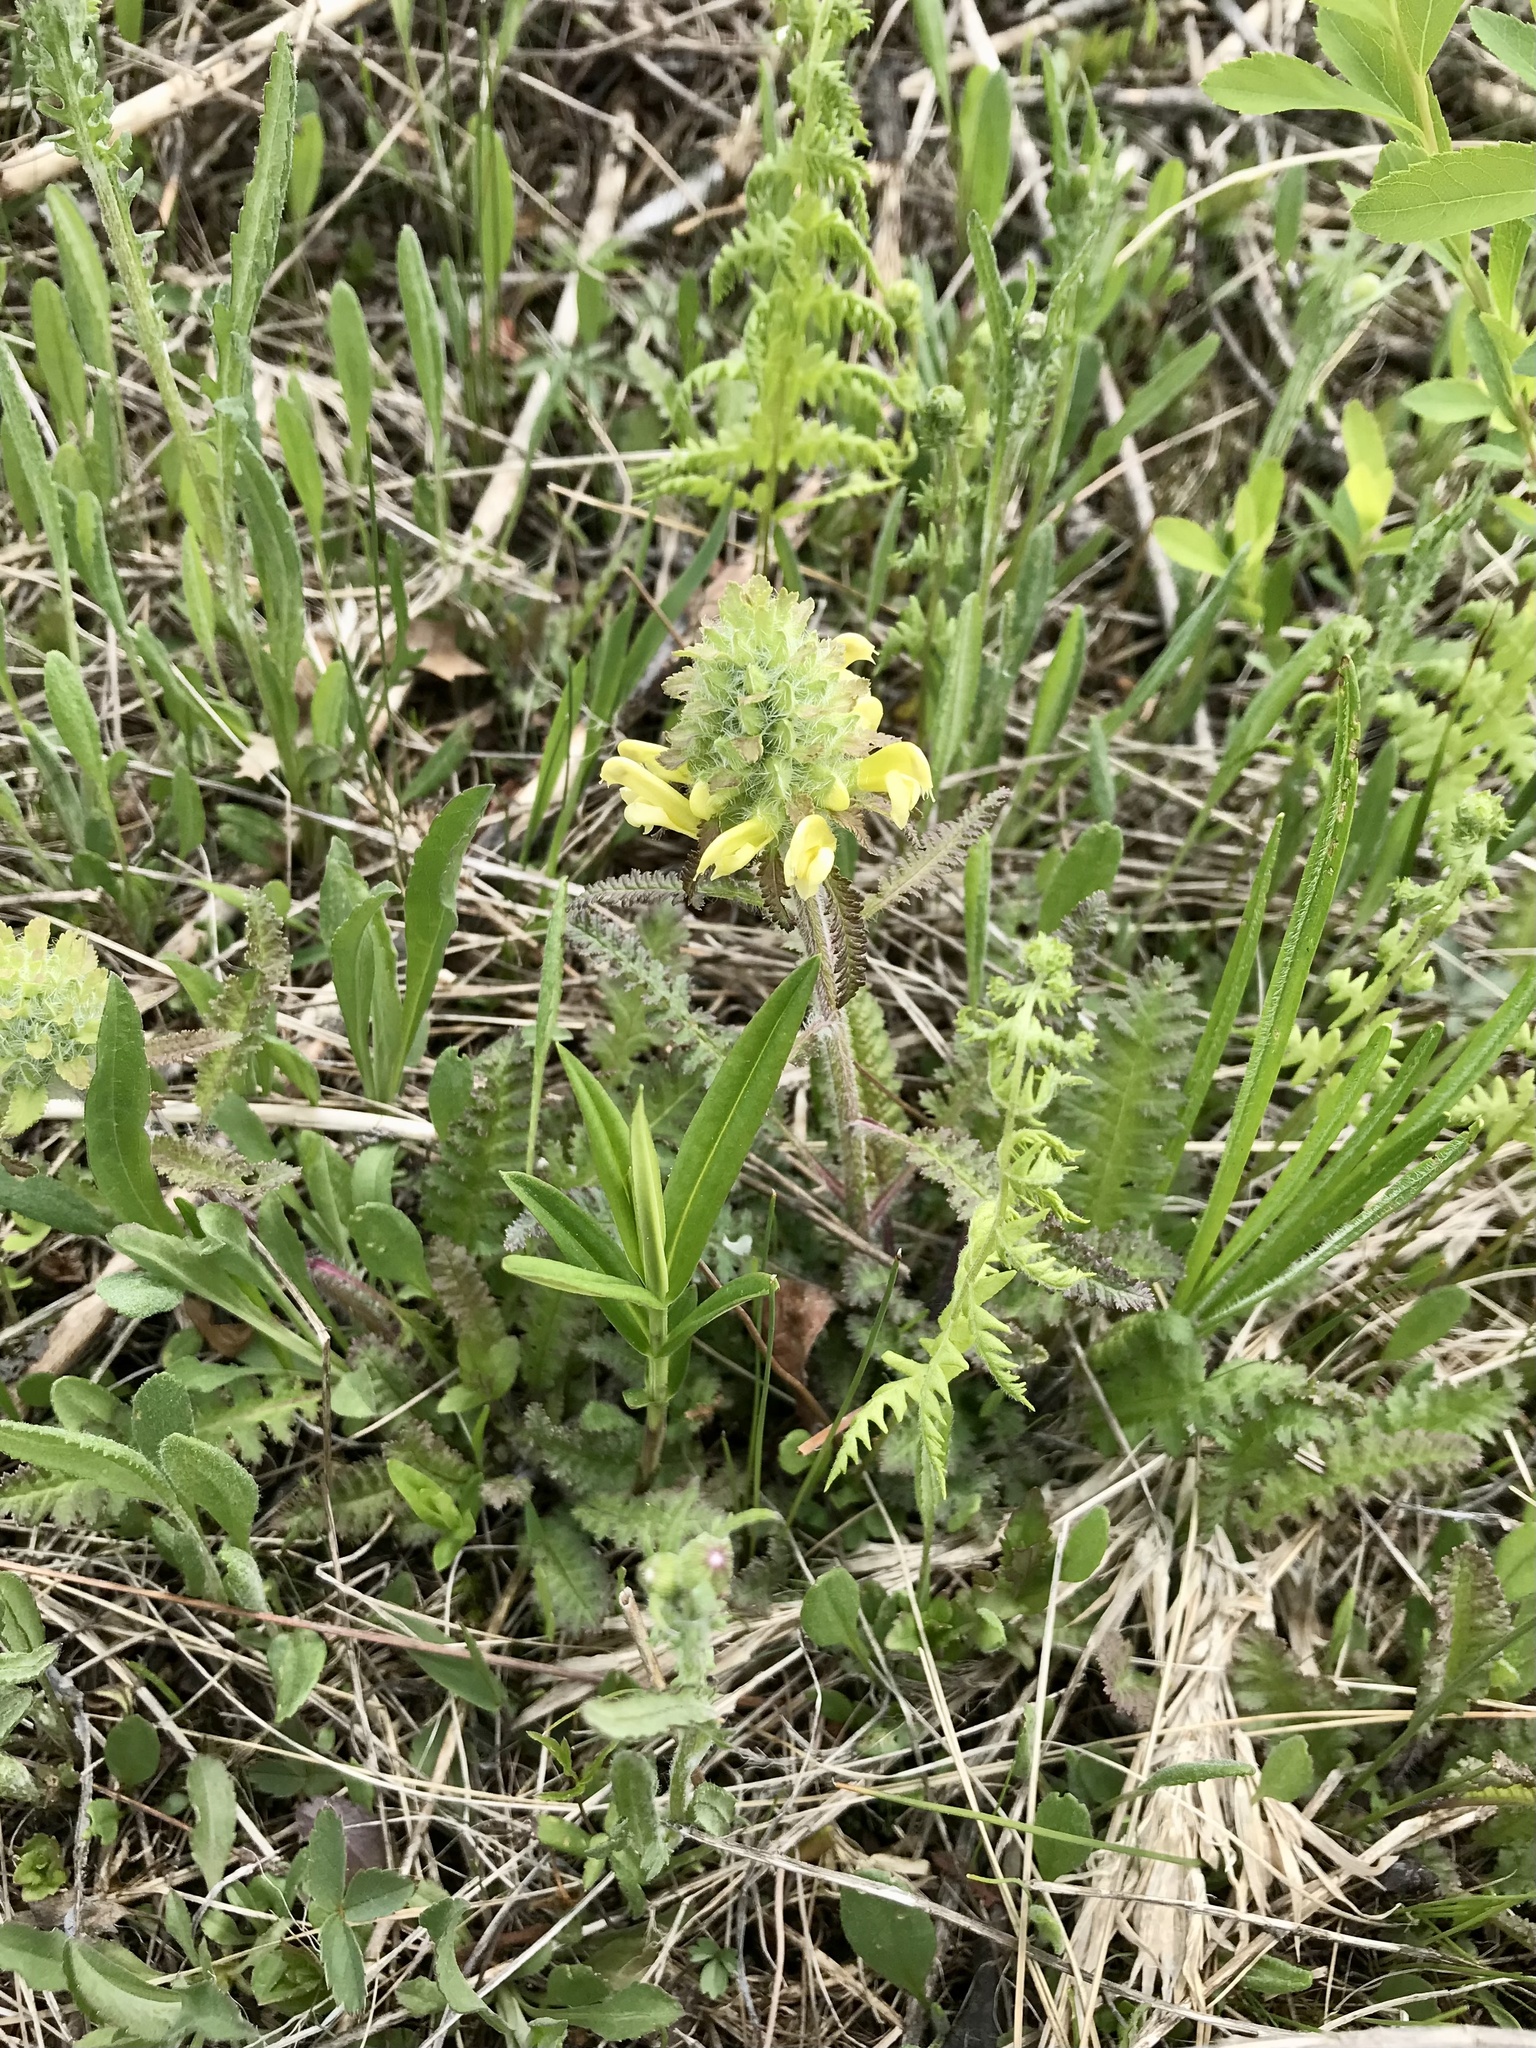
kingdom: Plantae
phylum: Tracheophyta
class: Magnoliopsida
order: Lamiales
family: Orobanchaceae
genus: Pedicularis
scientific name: Pedicularis canadensis
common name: Early lousewort
